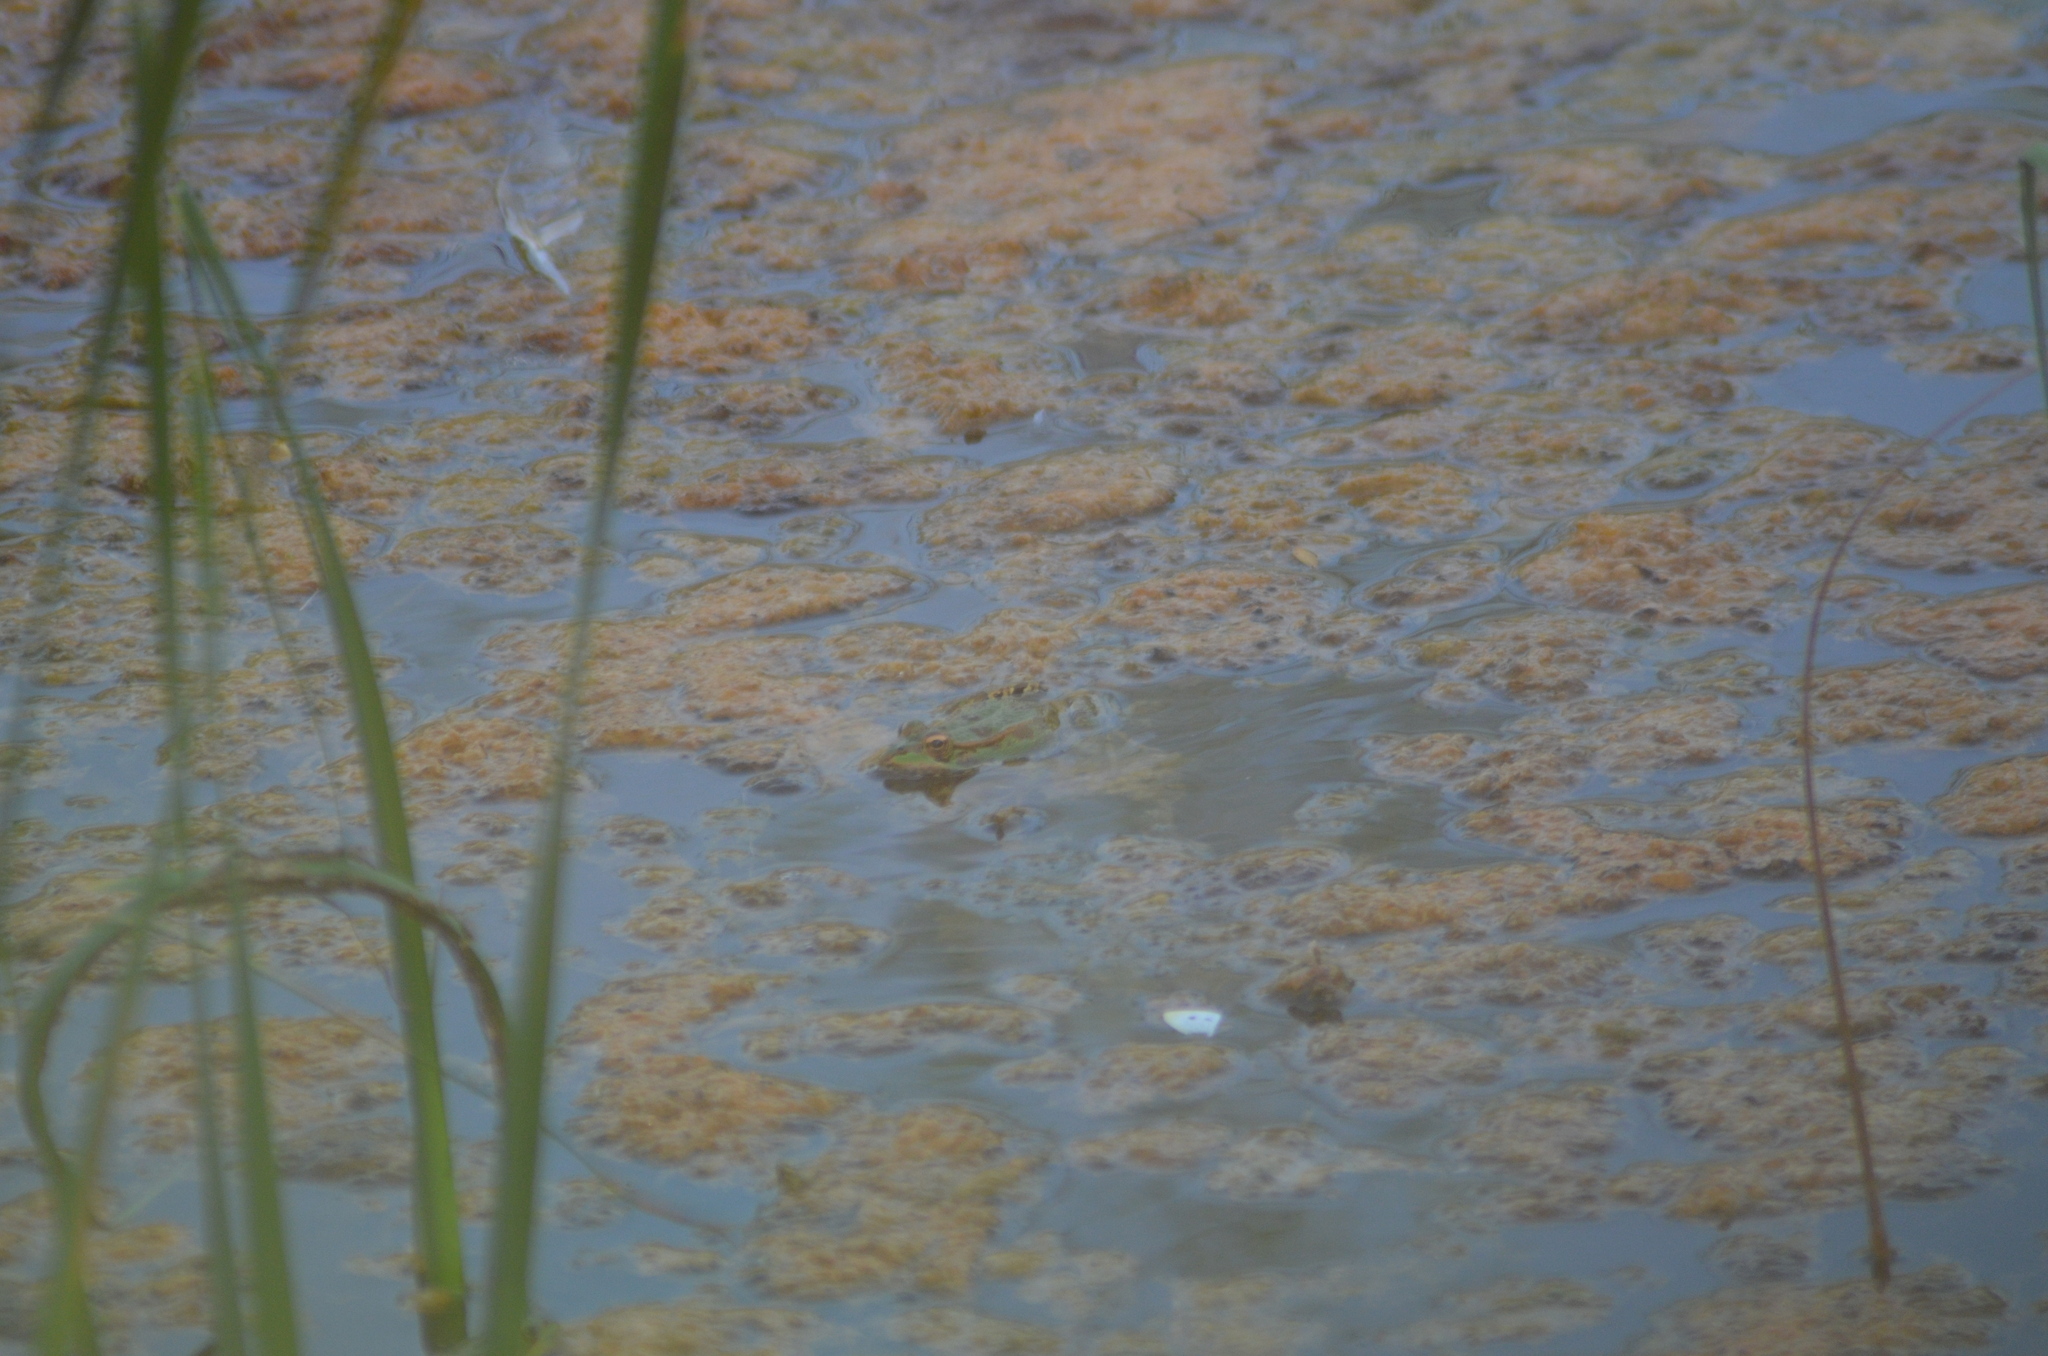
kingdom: Animalia
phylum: Chordata
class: Amphibia
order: Anura
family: Ranidae
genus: Pelophylax
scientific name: Pelophylax perezi
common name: Perez's frog
